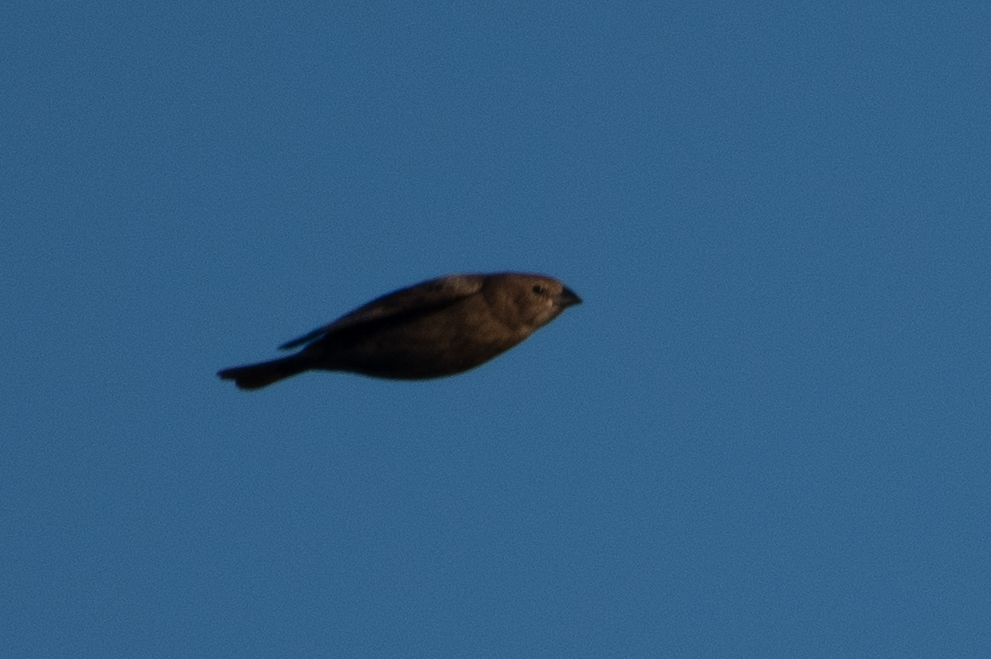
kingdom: Animalia
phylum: Chordata
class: Aves
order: Passeriformes
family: Icteridae
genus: Molothrus
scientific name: Molothrus ater
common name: Brown-headed cowbird
